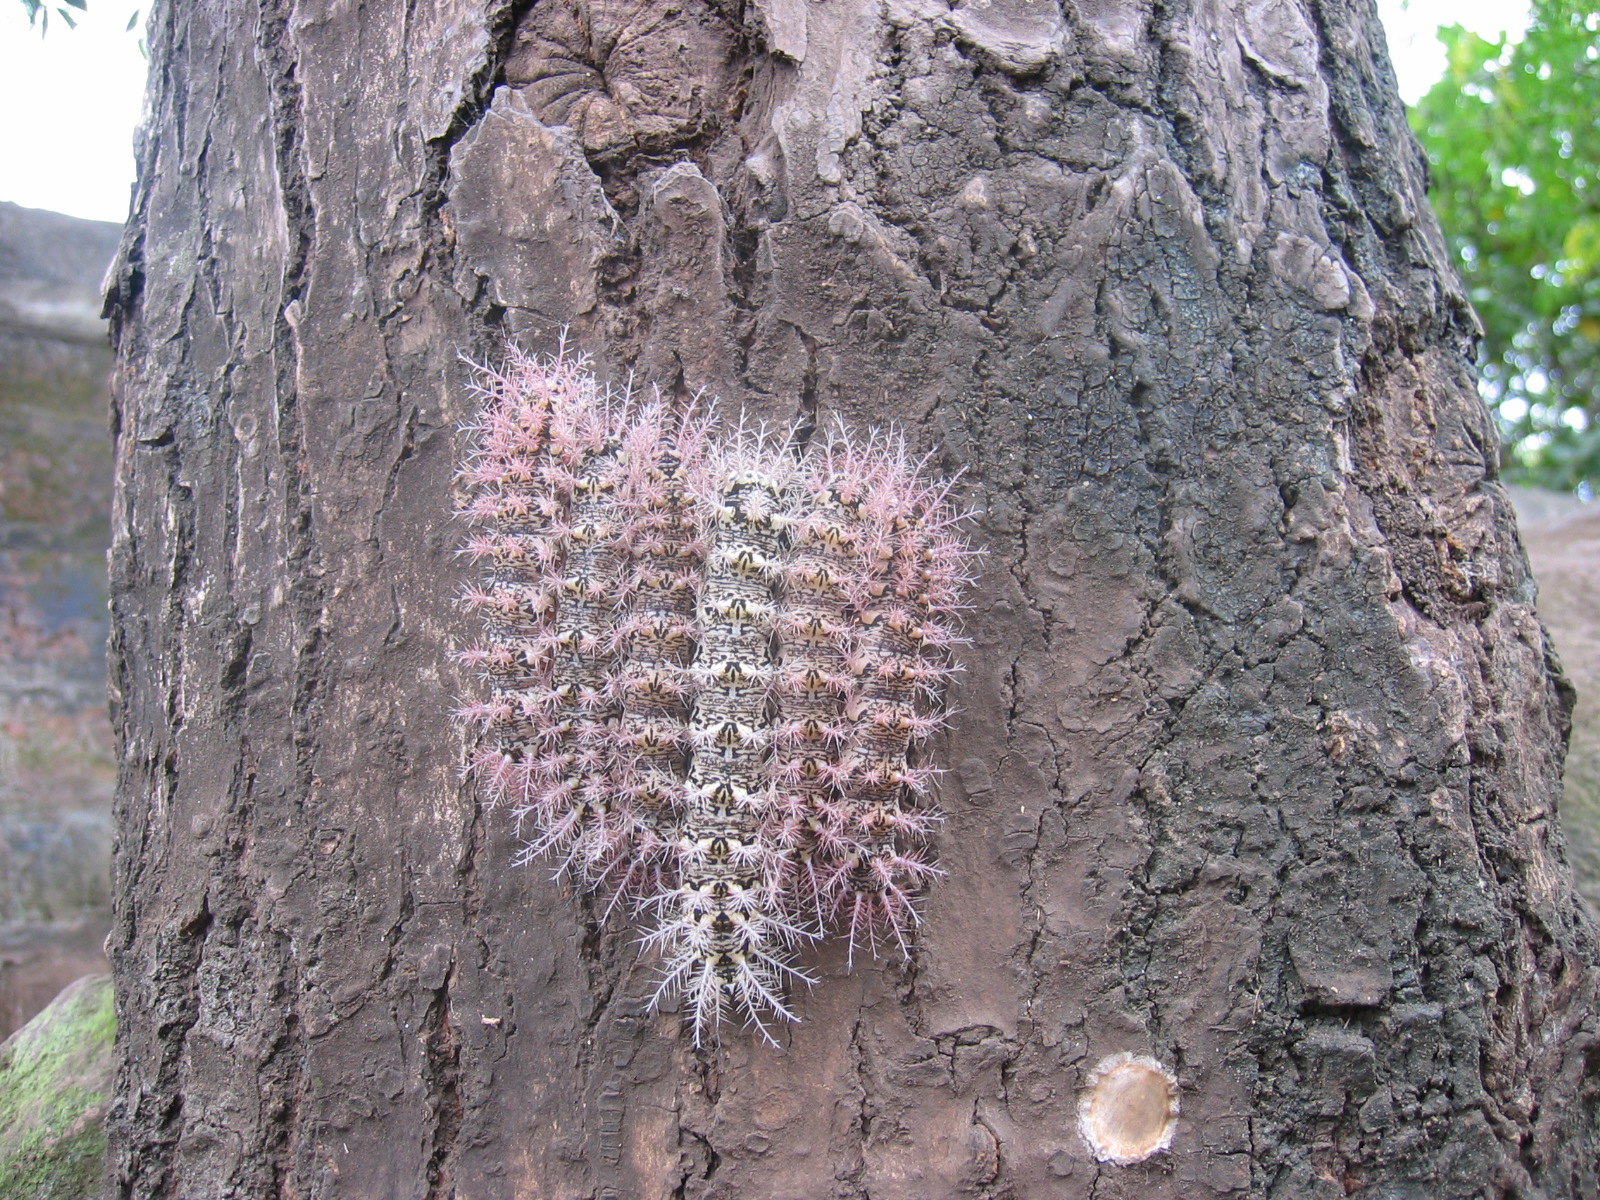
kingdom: Animalia
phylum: Arthropoda
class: Insecta
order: Lepidoptera
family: Saturniidae
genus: Dirphia
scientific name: Dirphia avia
